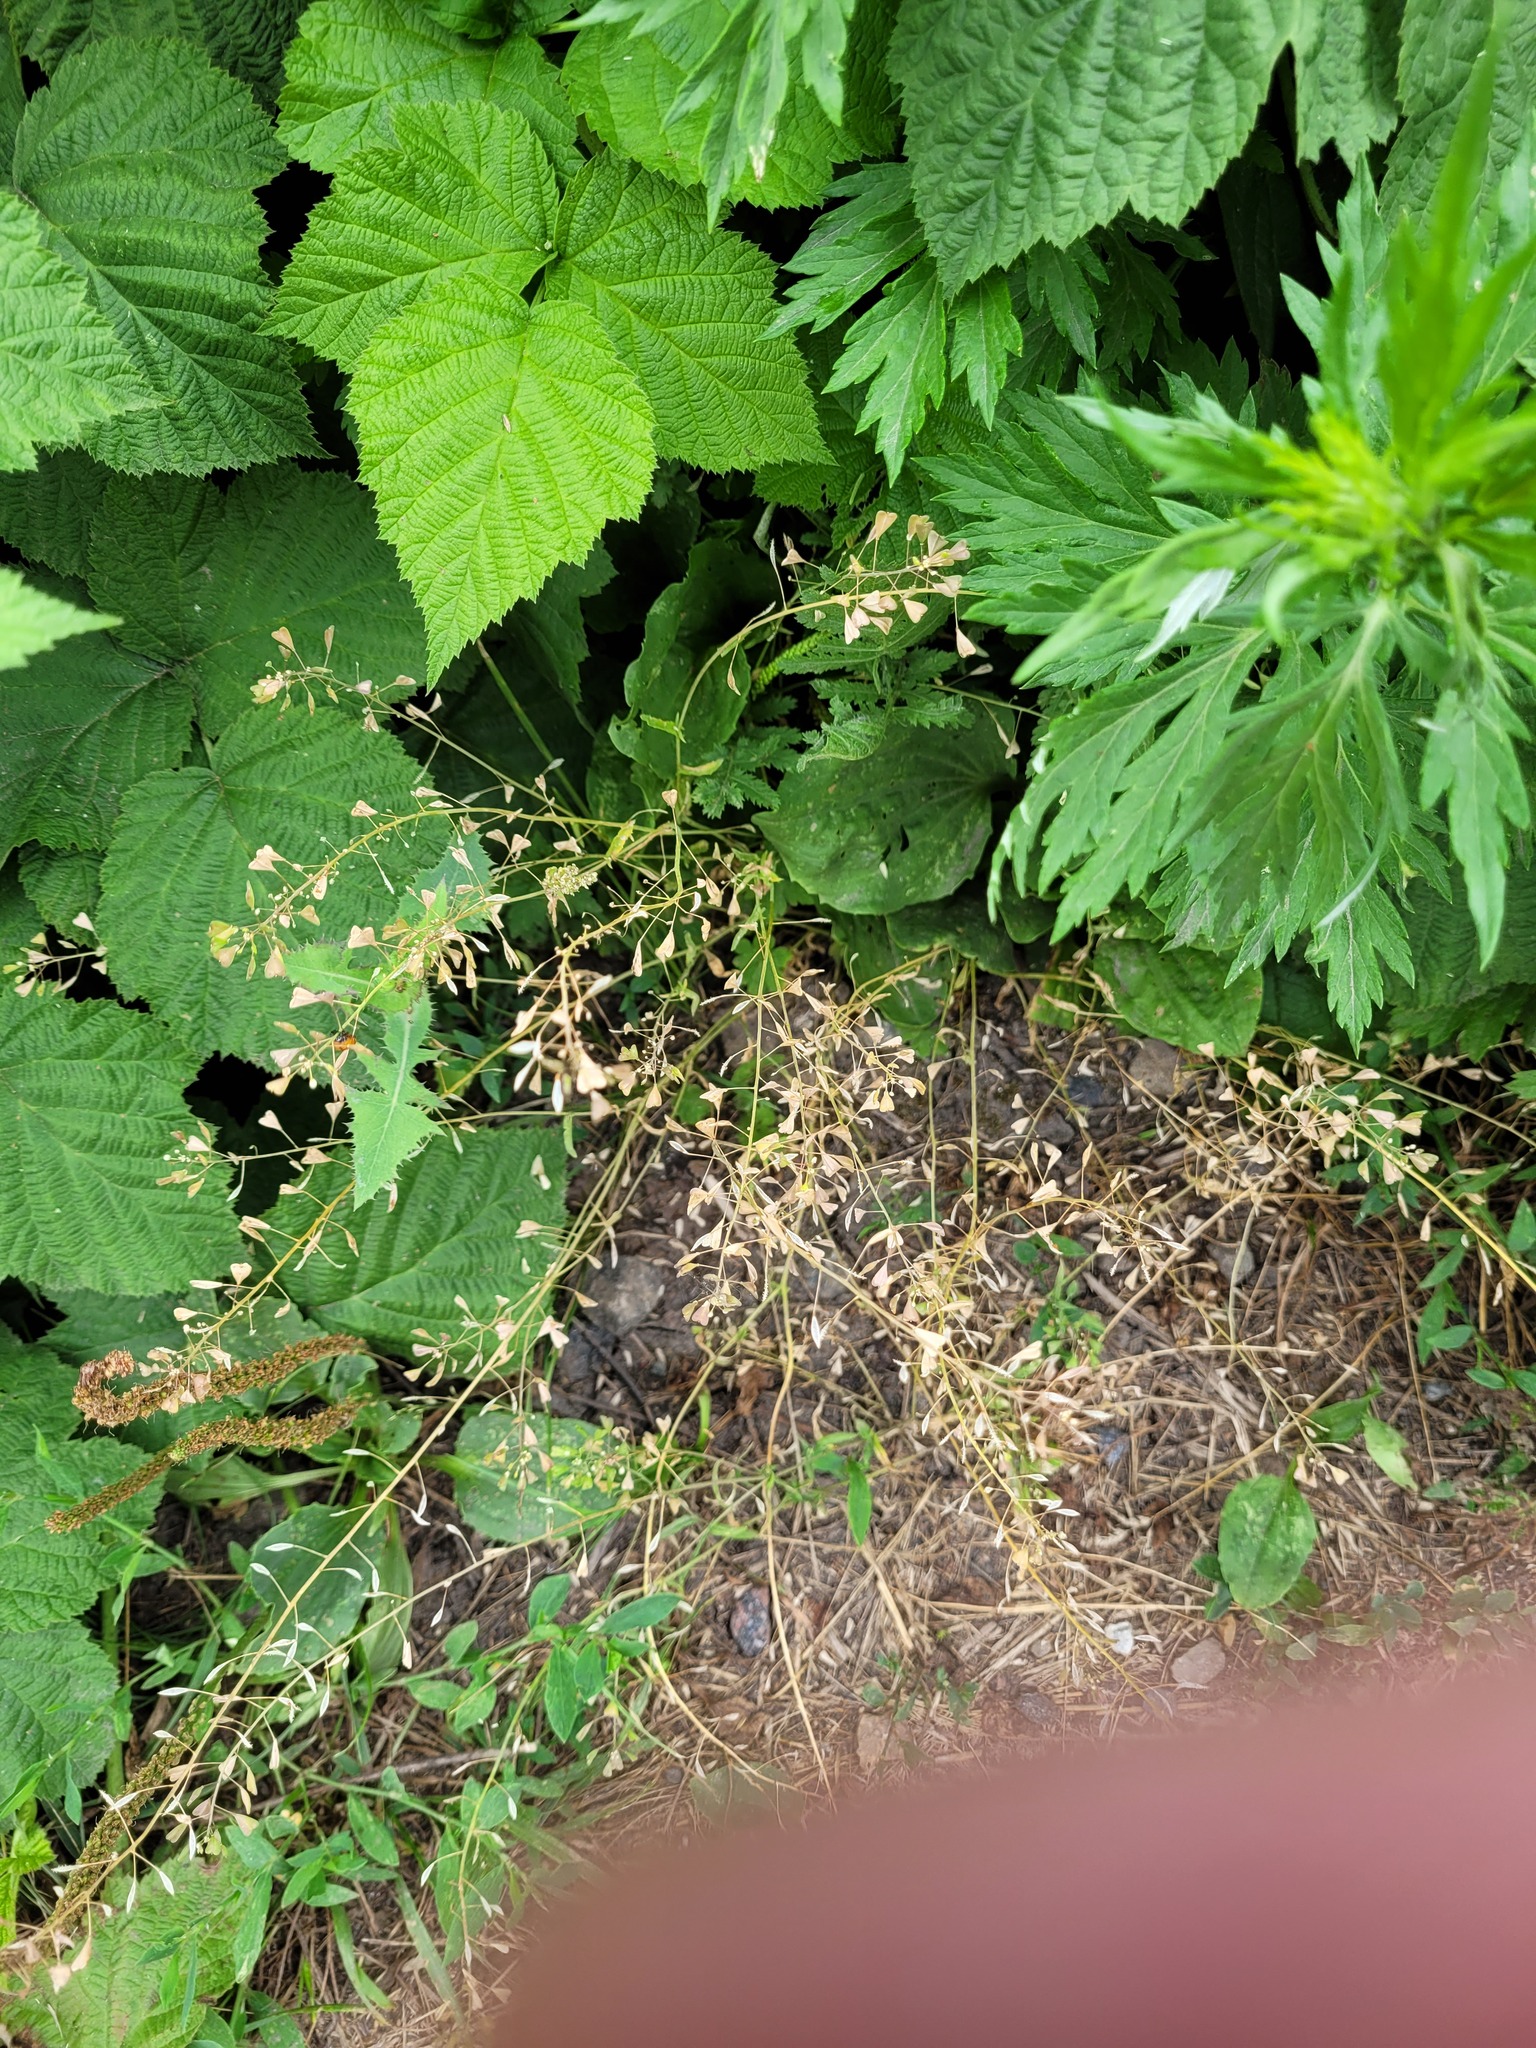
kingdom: Plantae
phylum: Tracheophyta
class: Magnoliopsida
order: Brassicales
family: Brassicaceae
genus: Capsella
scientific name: Capsella bursa-pastoris
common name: Shepherd's purse
